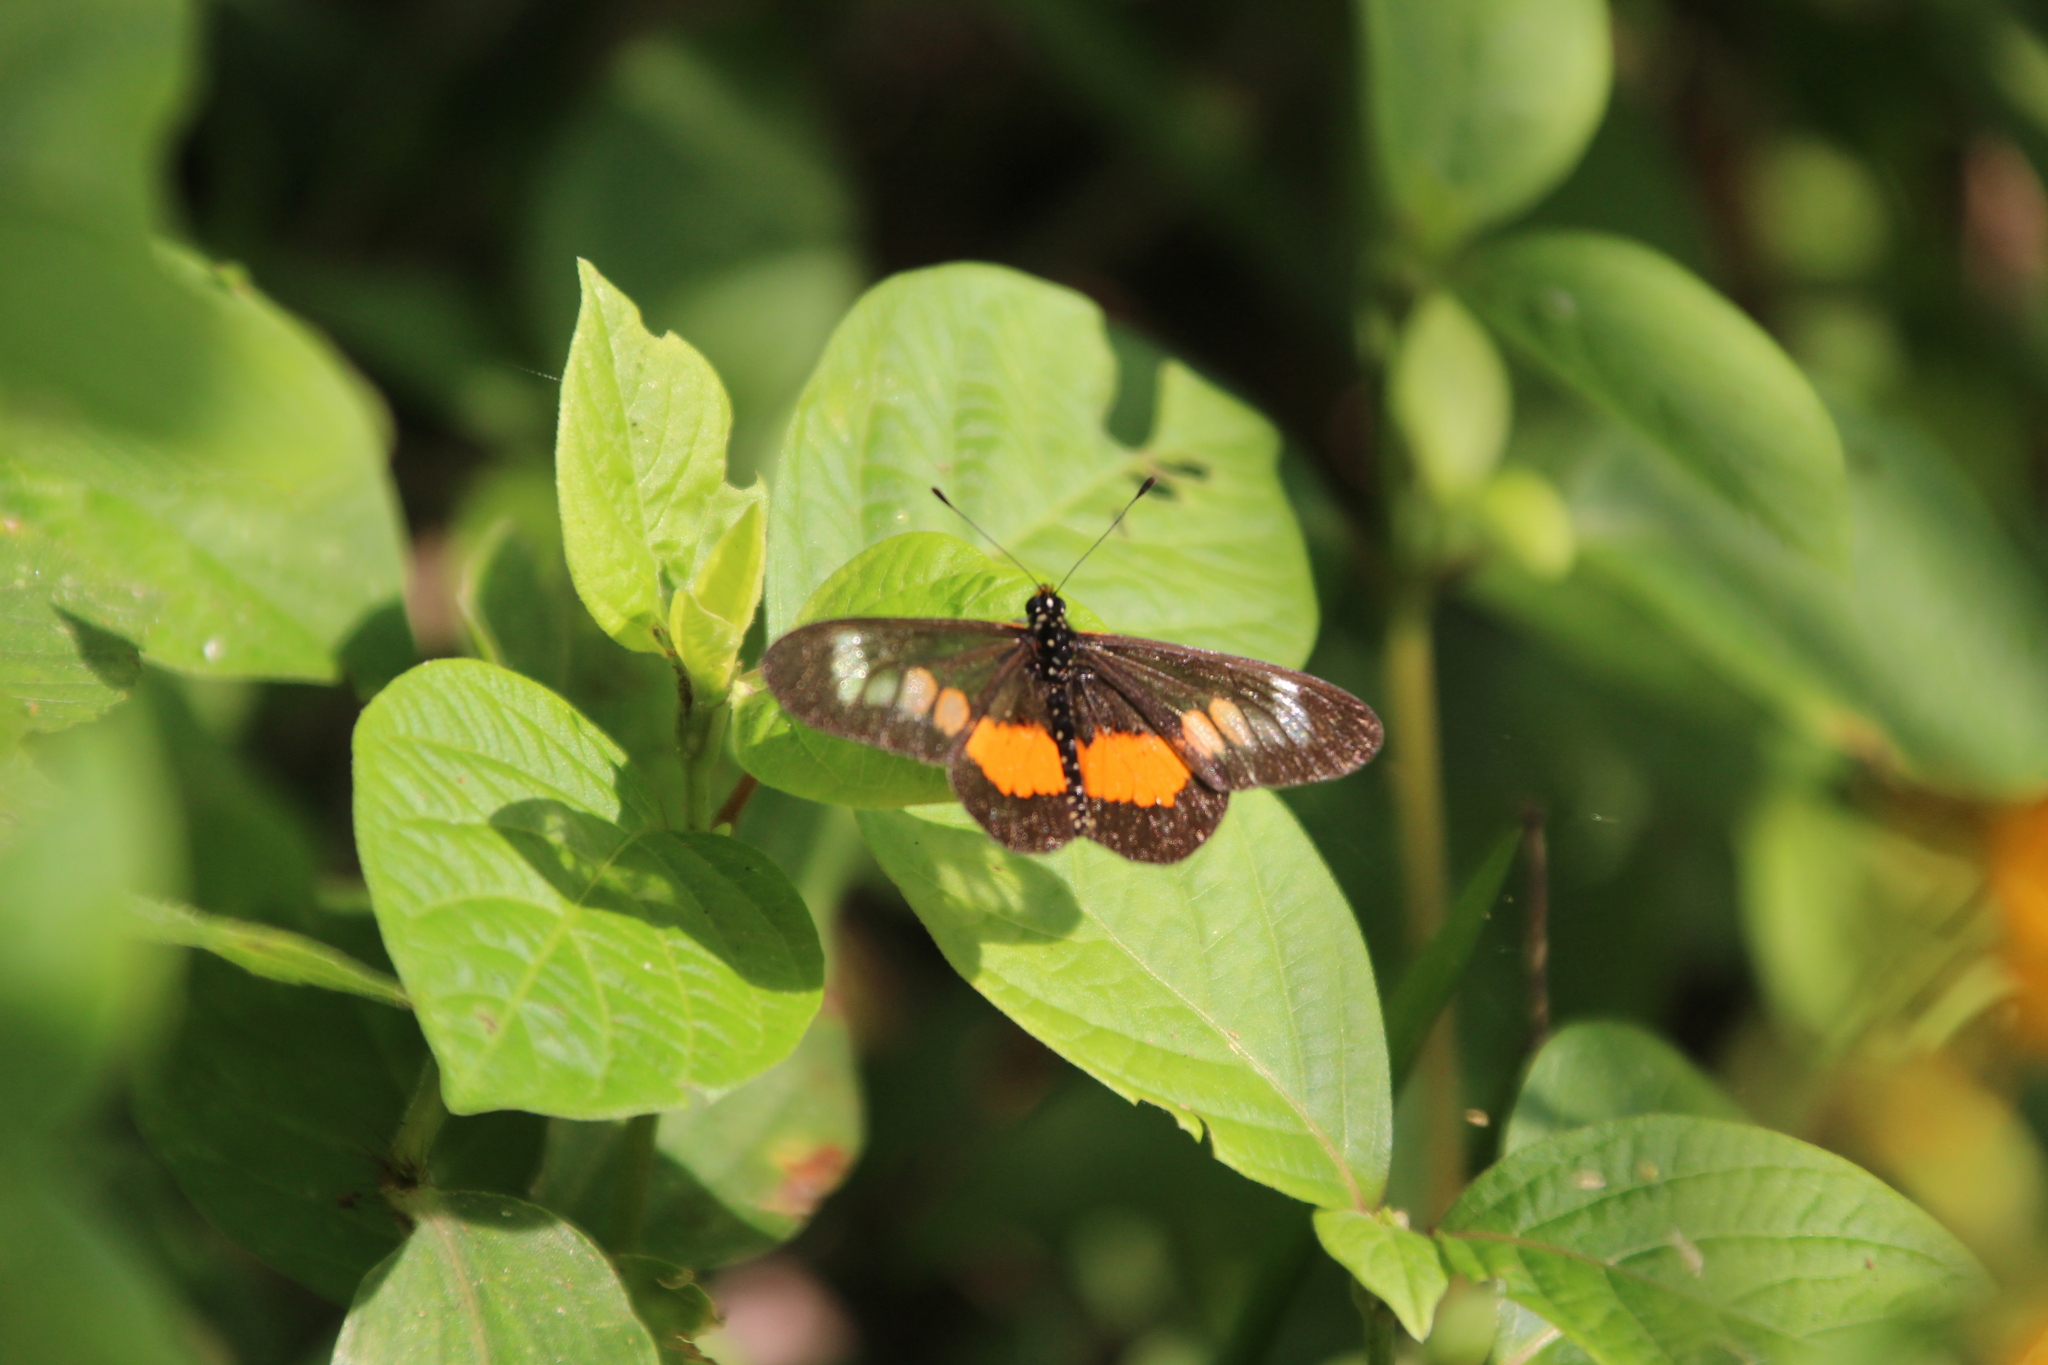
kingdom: Animalia
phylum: Arthropoda
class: Insecta
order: Lepidoptera
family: Nymphalidae
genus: Acraea
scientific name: Acraea
